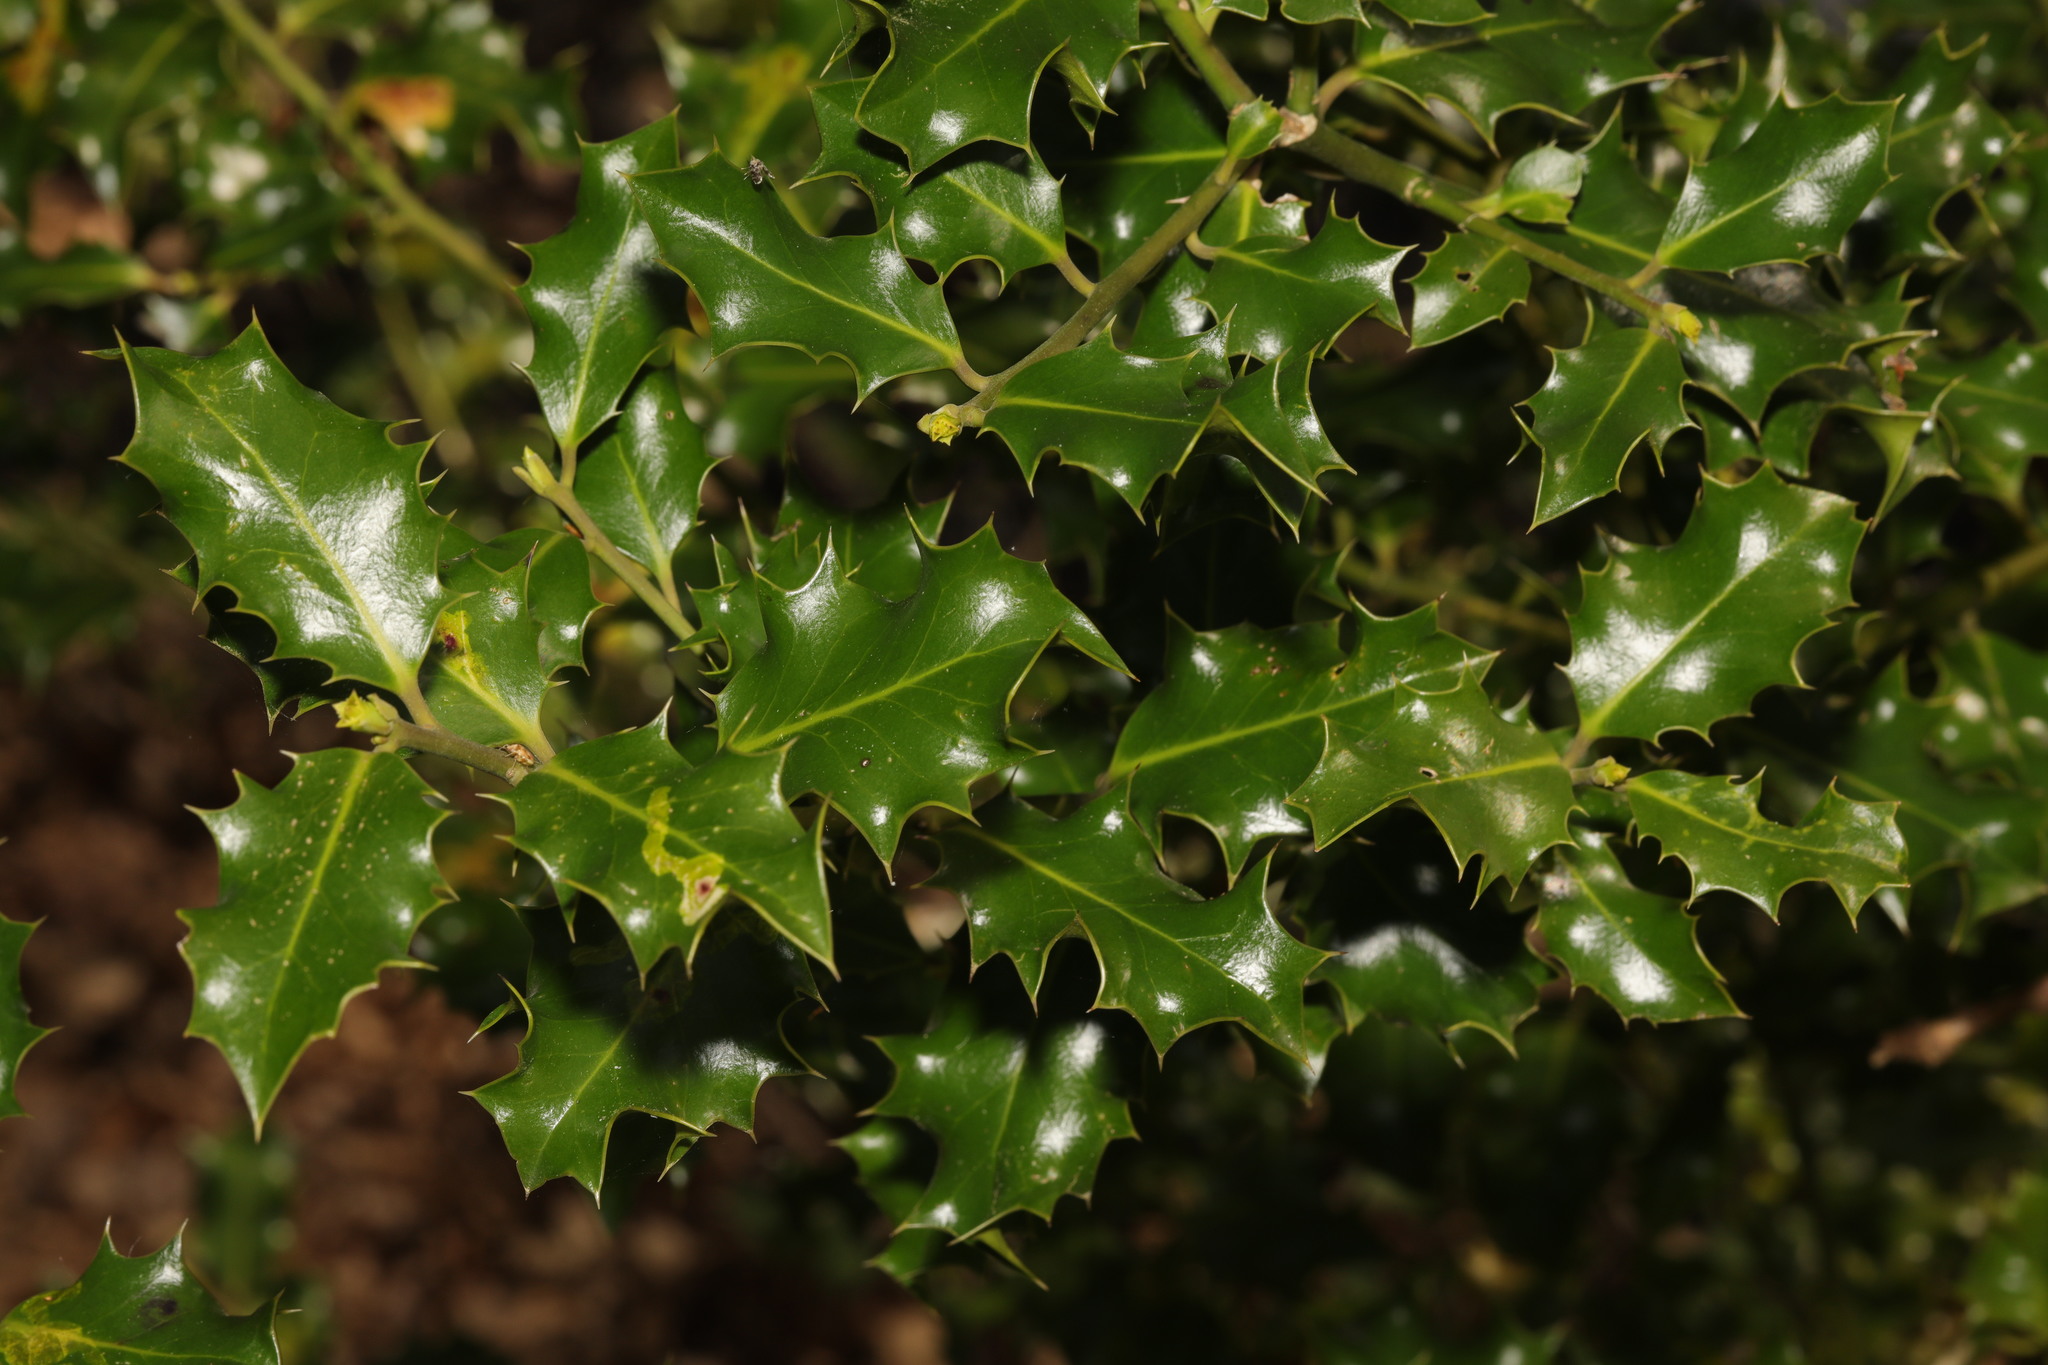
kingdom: Plantae
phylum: Tracheophyta
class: Magnoliopsida
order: Aquifoliales
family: Aquifoliaceae
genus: Ilex
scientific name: Ilex aquifolium
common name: English holly
